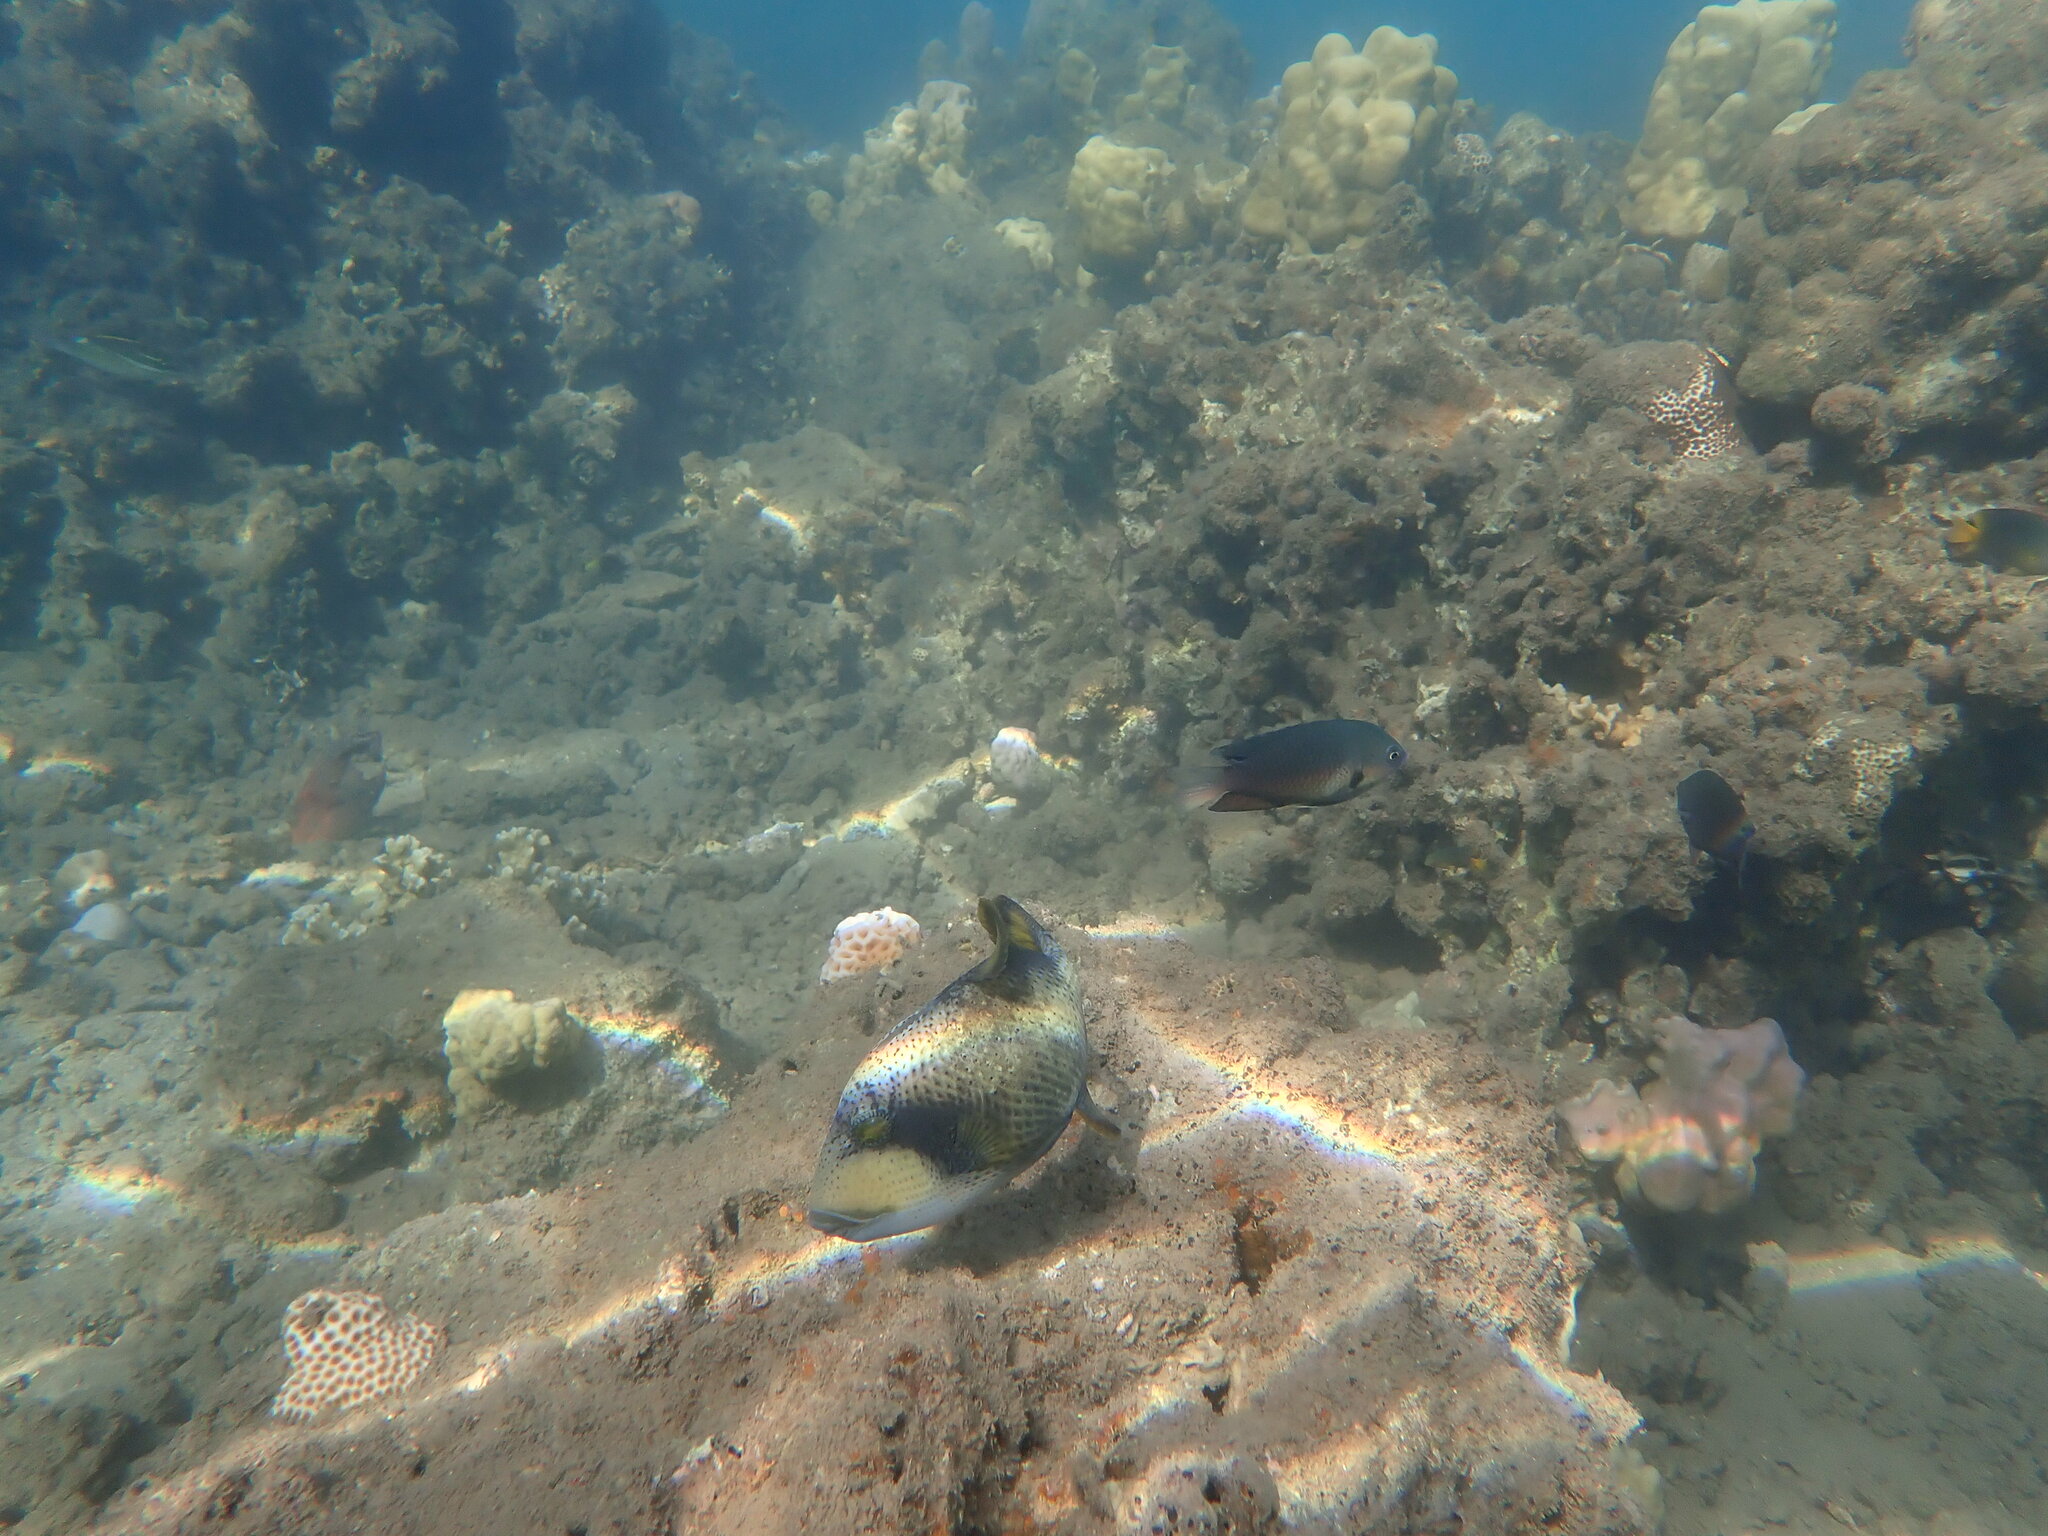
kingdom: Animalia
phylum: Chordata
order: Tetraodontiformes
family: Balistidae
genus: Balistoides
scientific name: Balistoides viridescens
